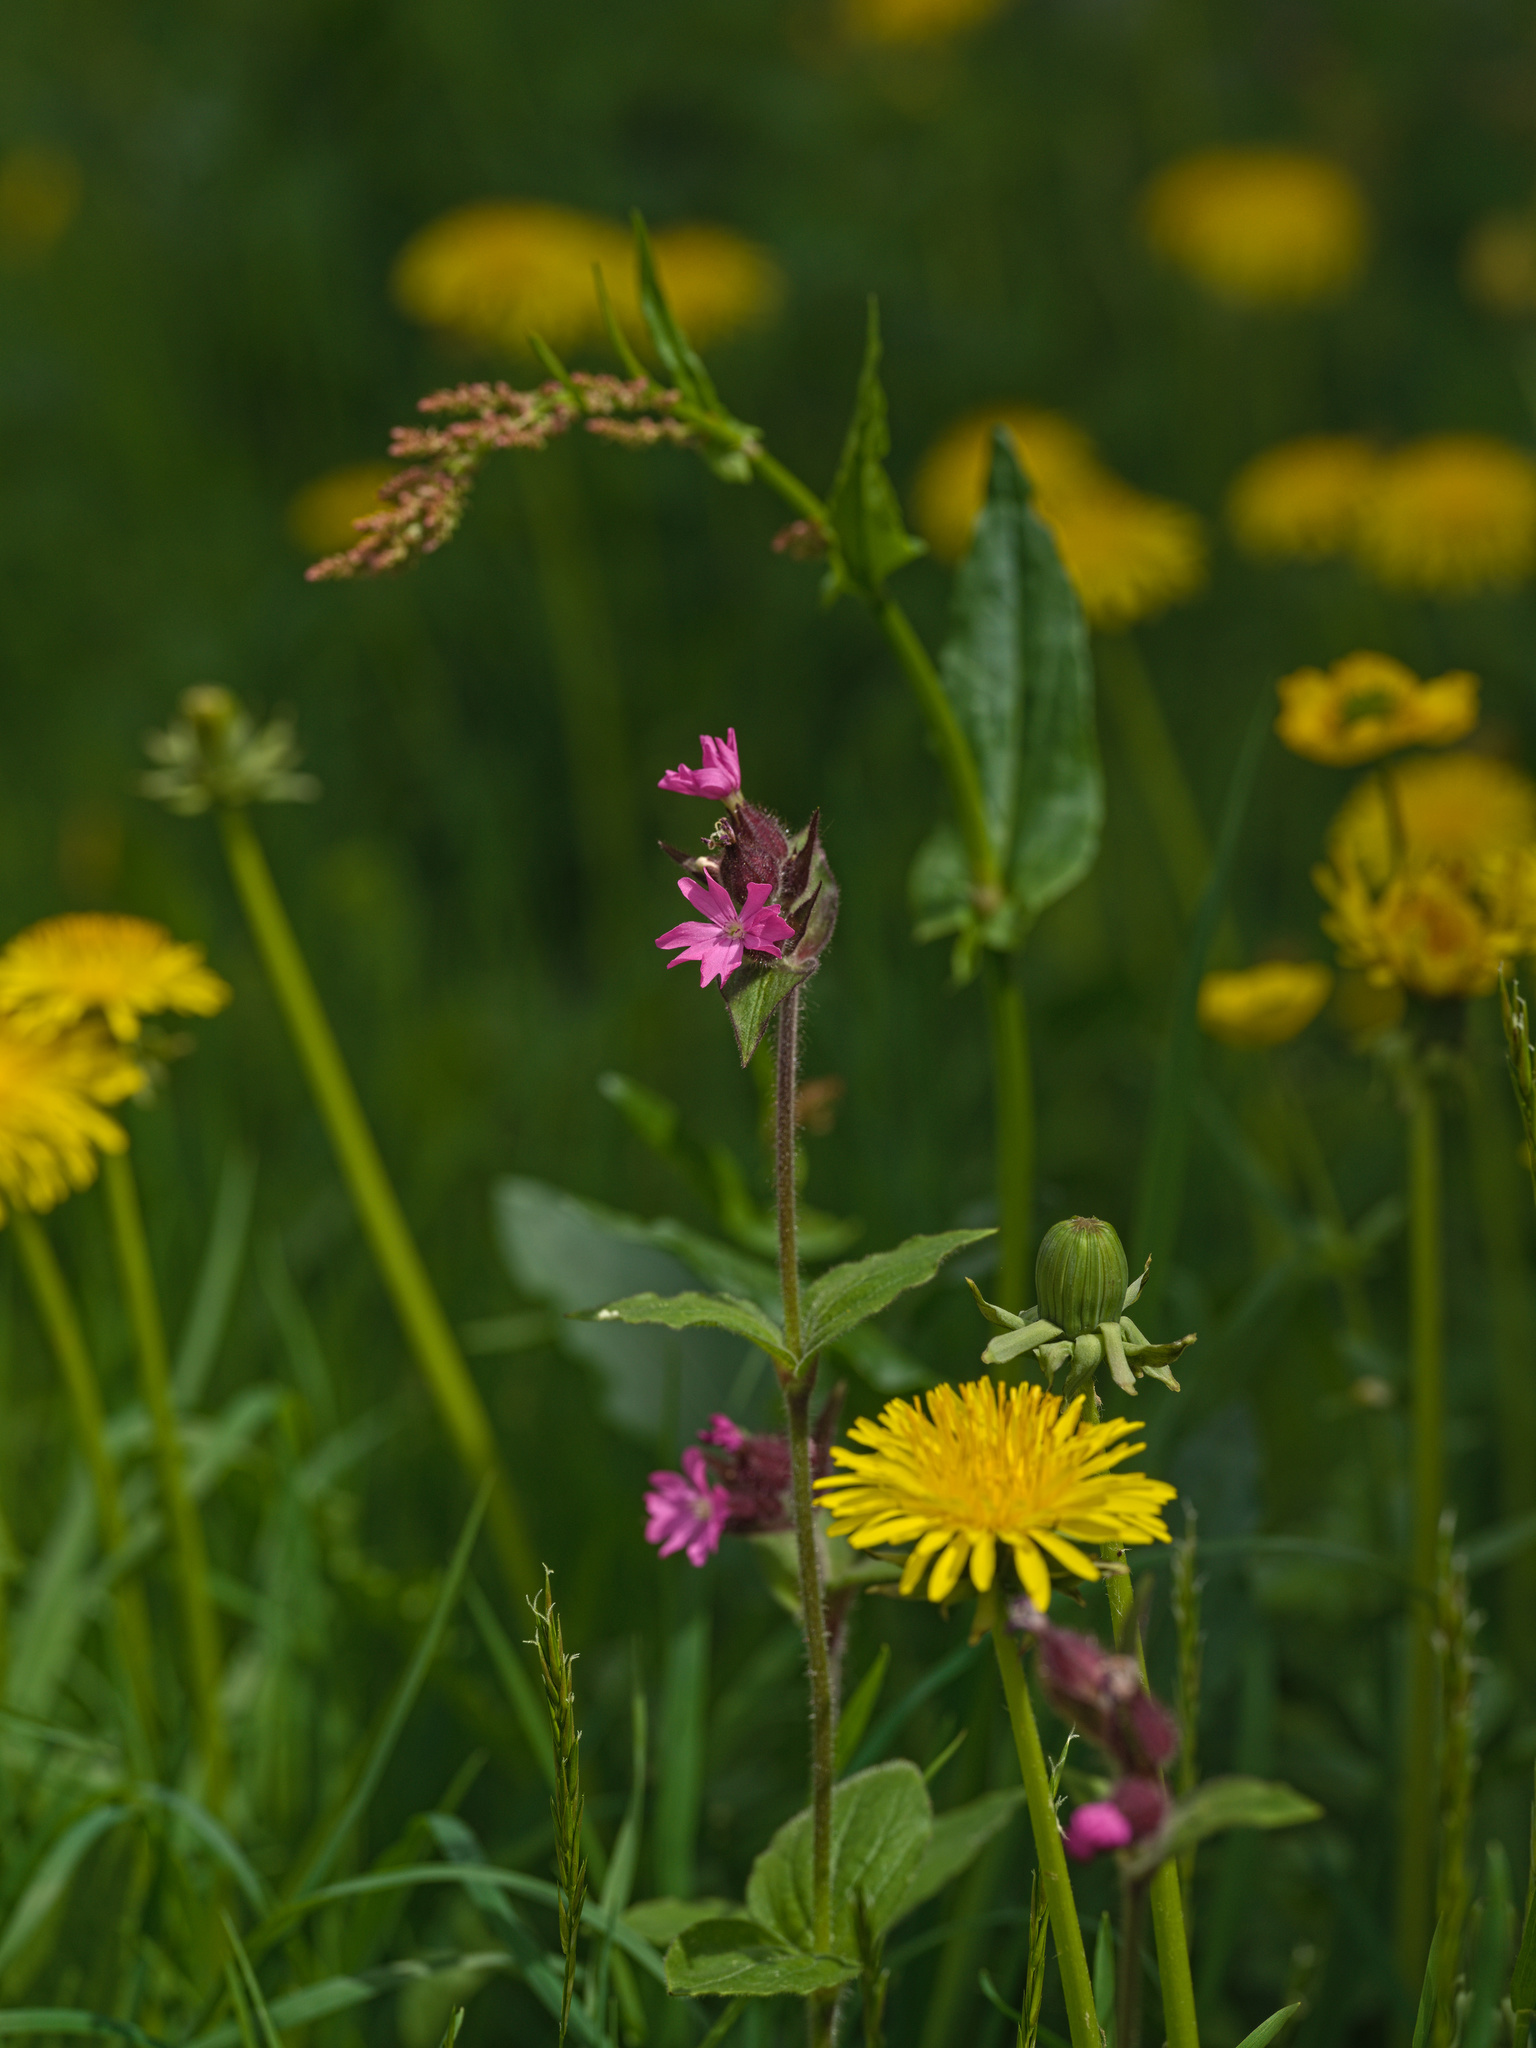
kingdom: Plantae
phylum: Tracheophyta
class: Magnoliopsida
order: Caryophyllales
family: Caryophyllaceae
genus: Silene
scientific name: Silene dioica
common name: Red campion
